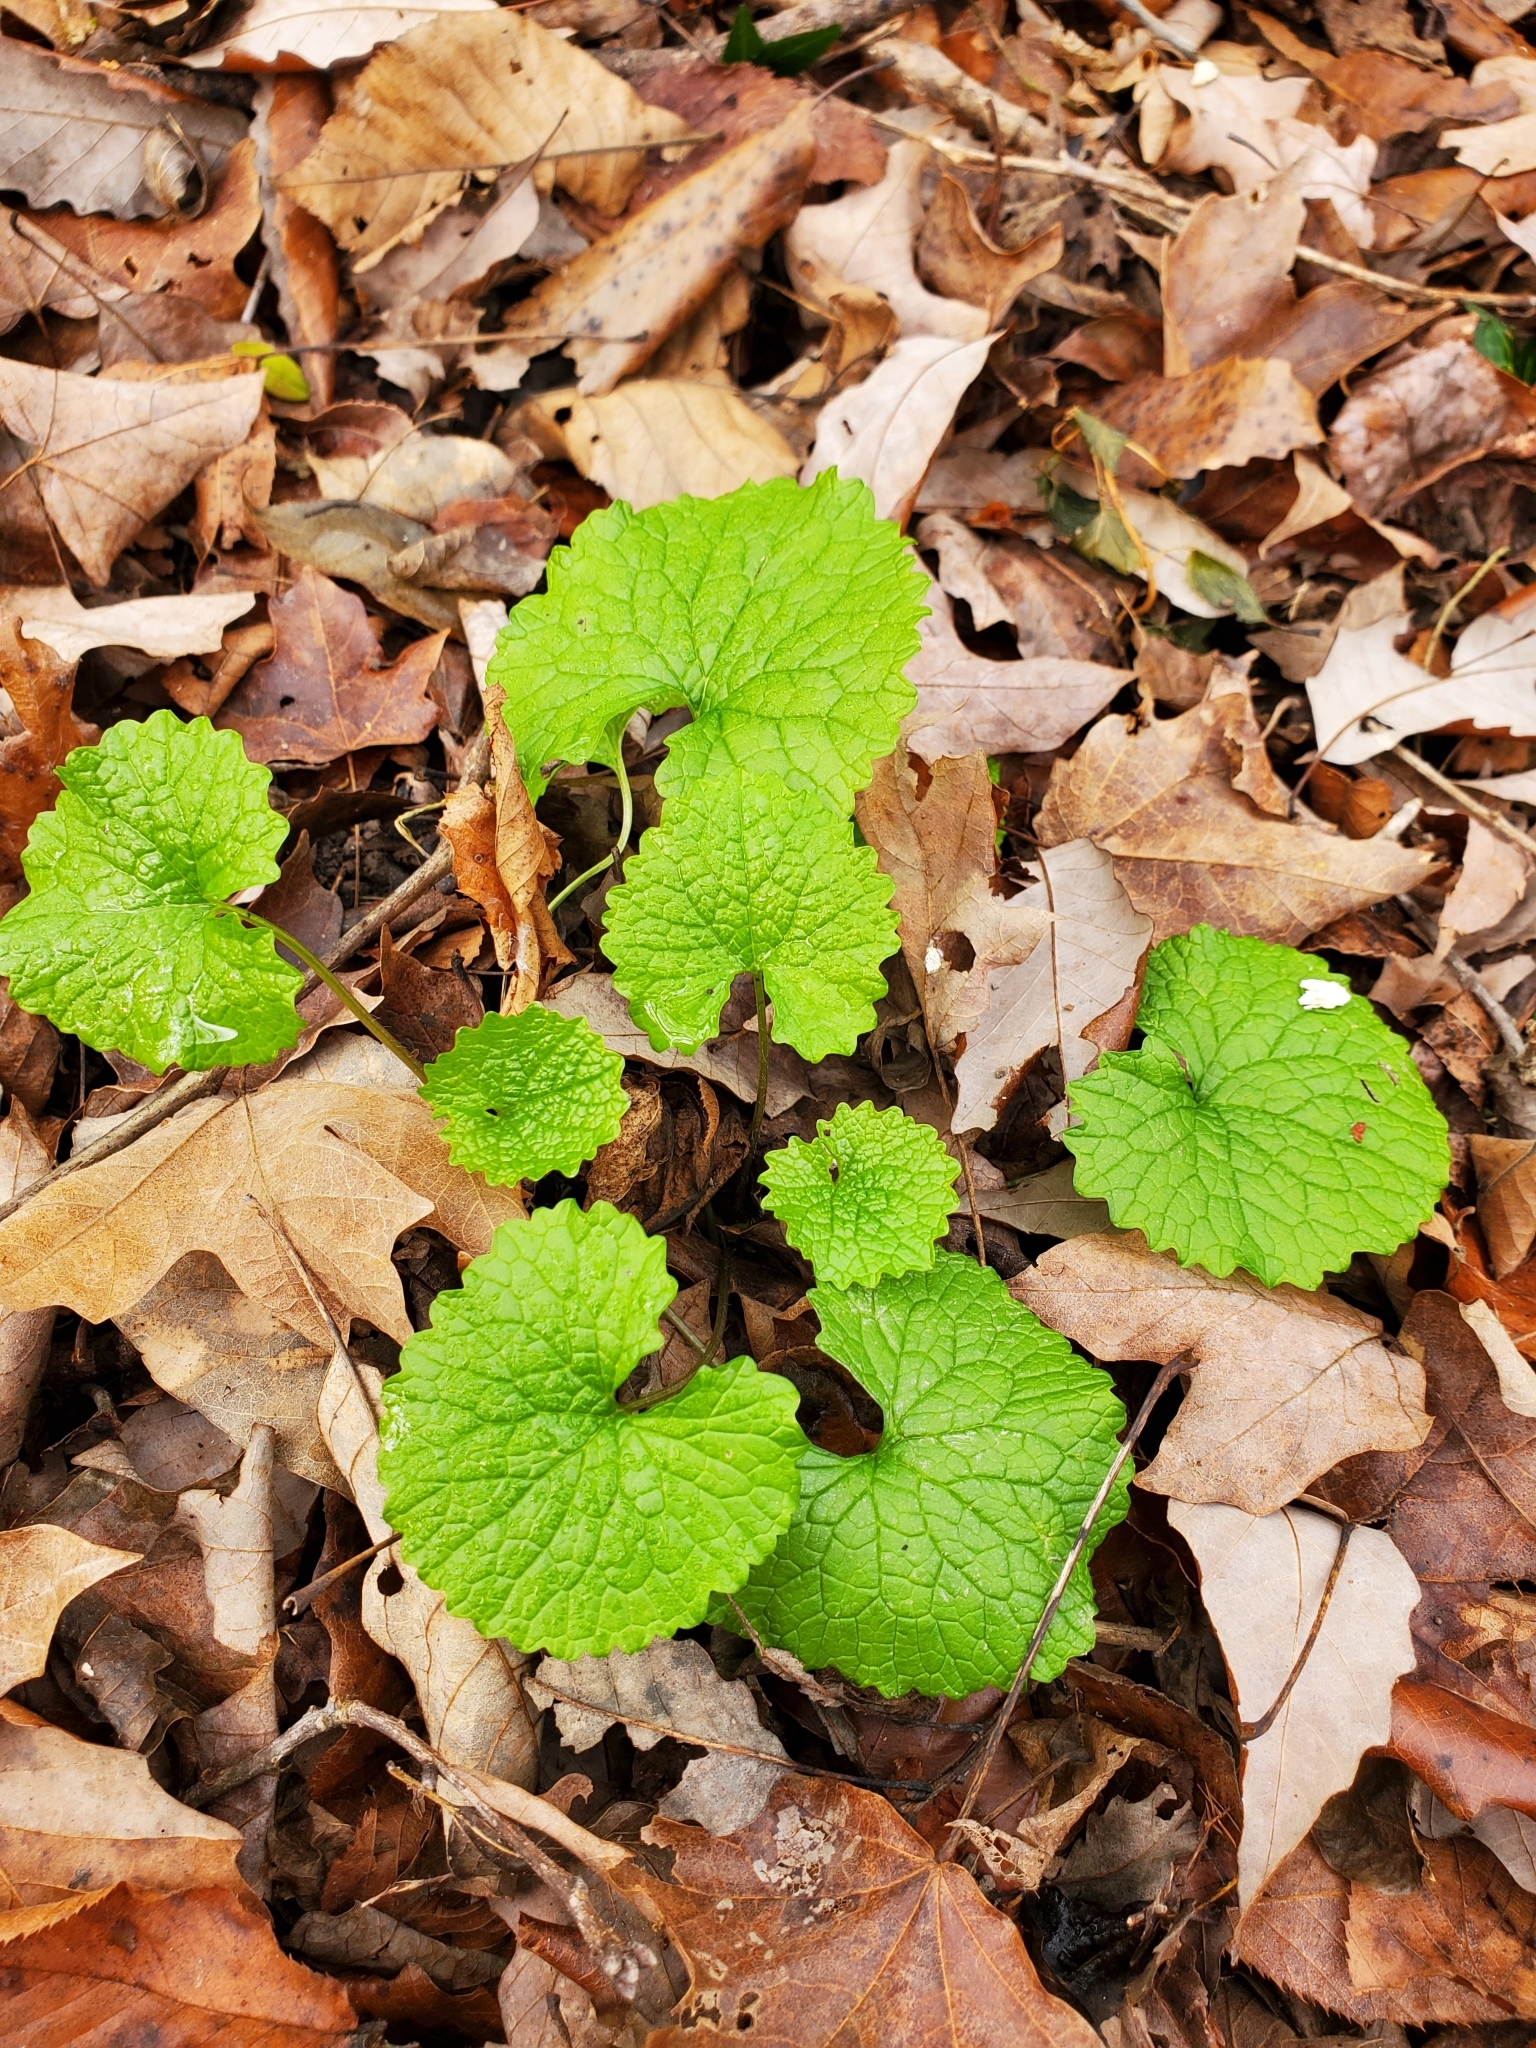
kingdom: Plantae
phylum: Tracheophyta
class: Magnoliopsida
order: Brassicales
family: Brassicaceae
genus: Alliaria
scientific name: Alliaria petiolata
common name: Garlic mustard
